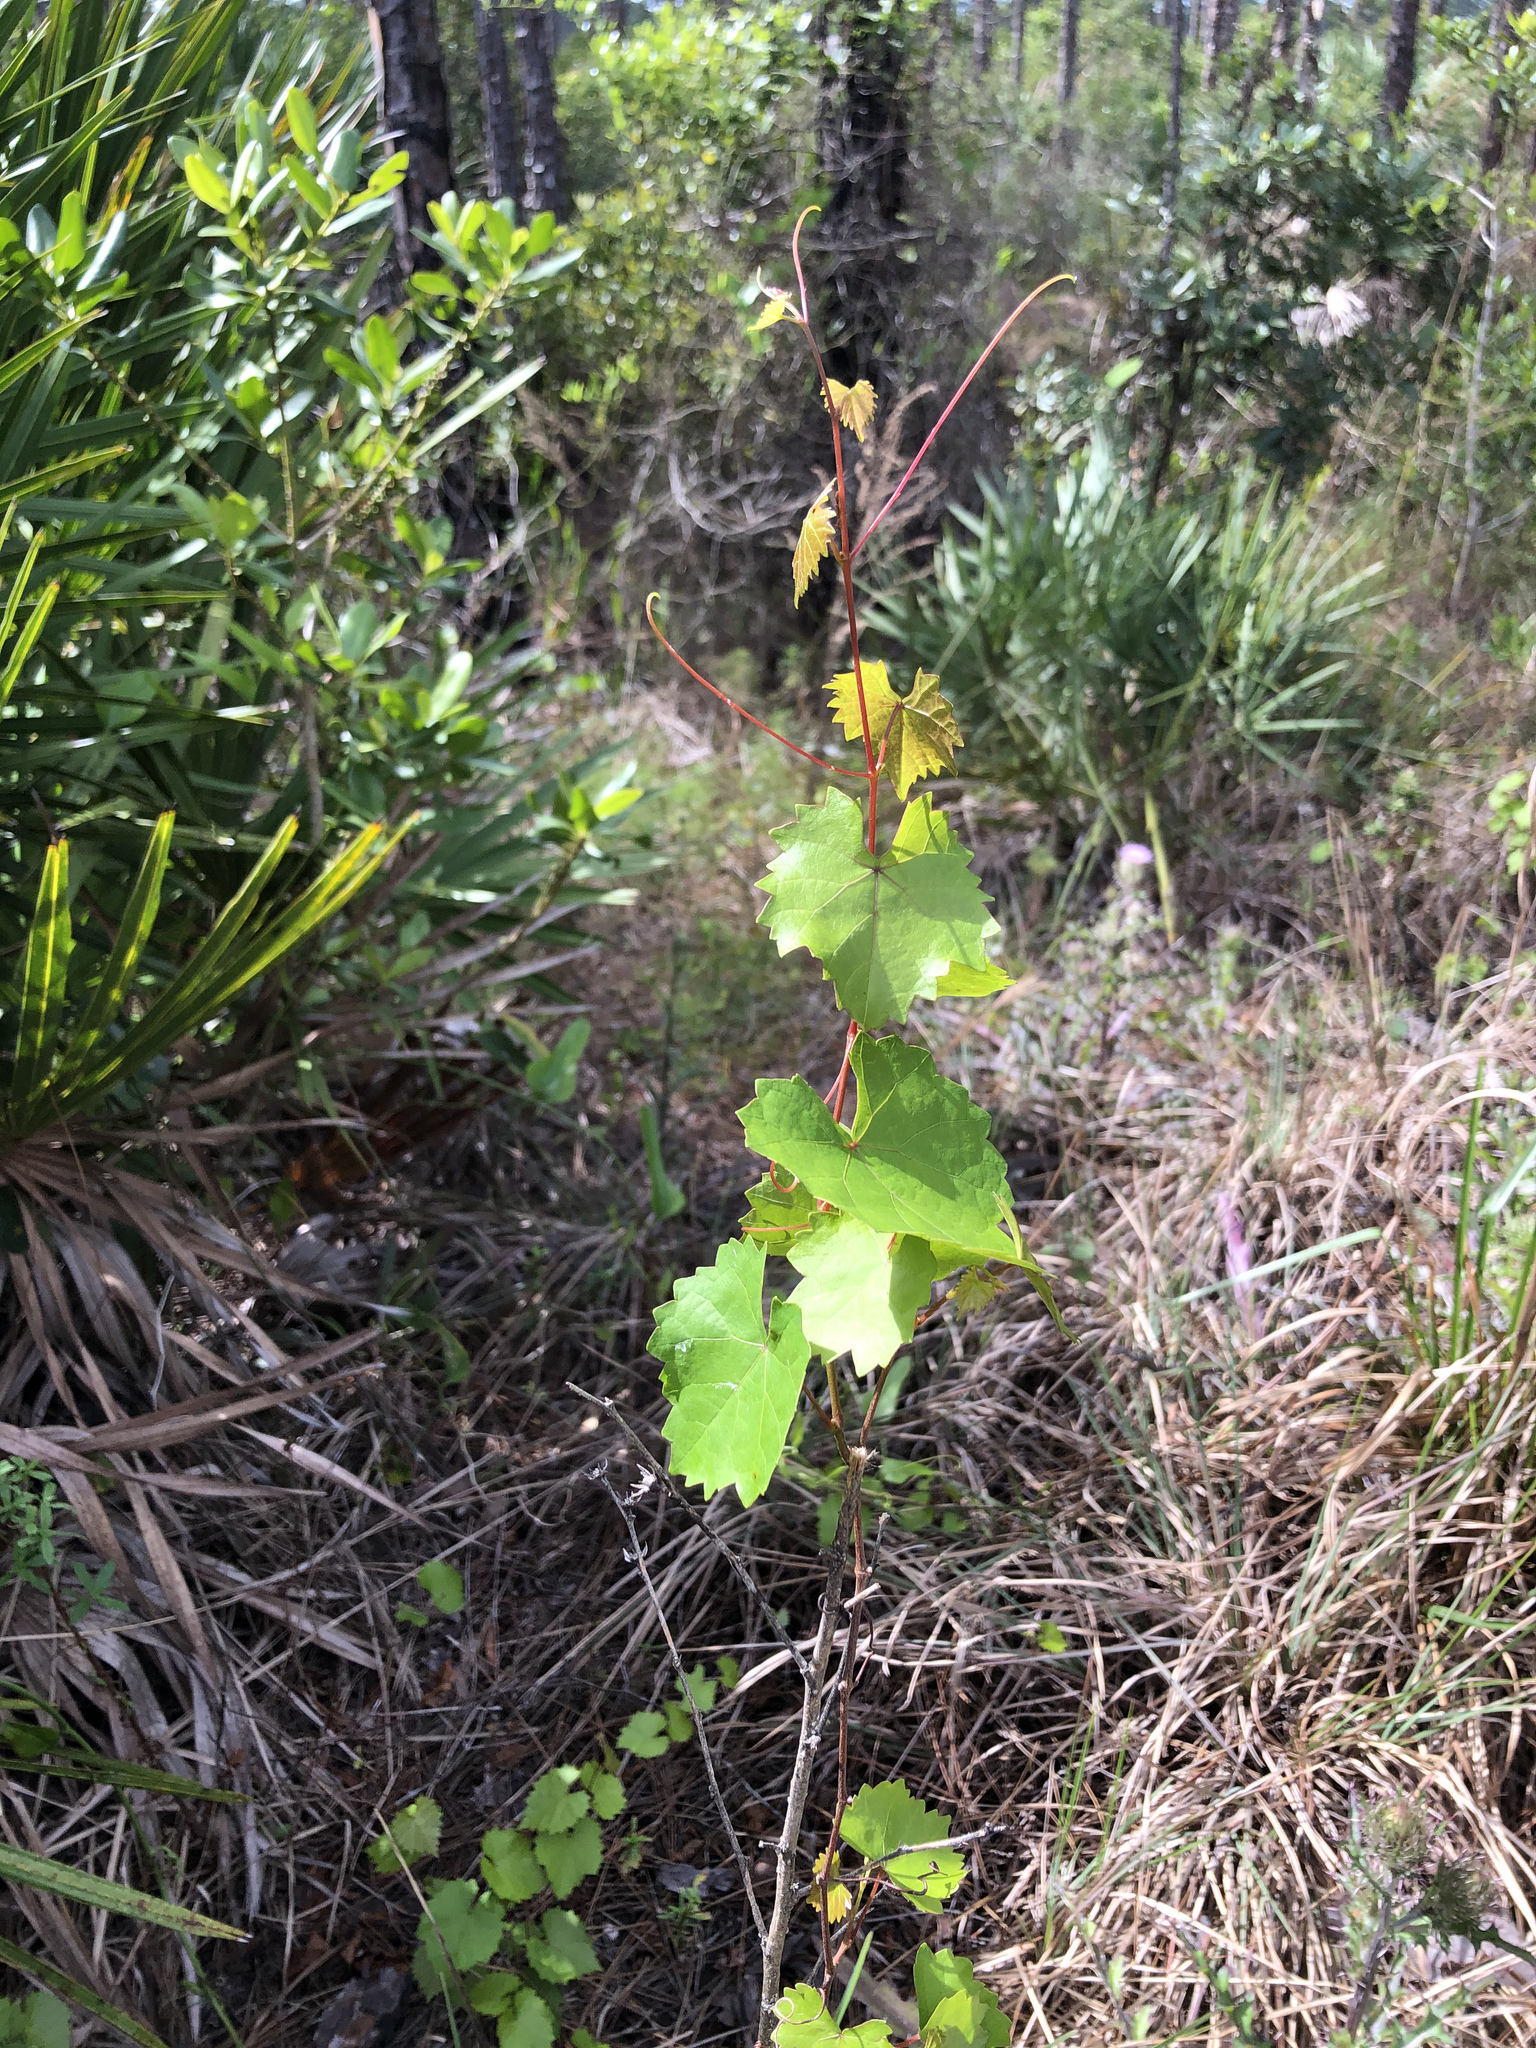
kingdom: Plantae
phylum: Tracheophyta
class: Magnoliopsida
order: Vitales
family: Vitaceae
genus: Vitis
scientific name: Vitis rotundifolia
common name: Muscadine grape
